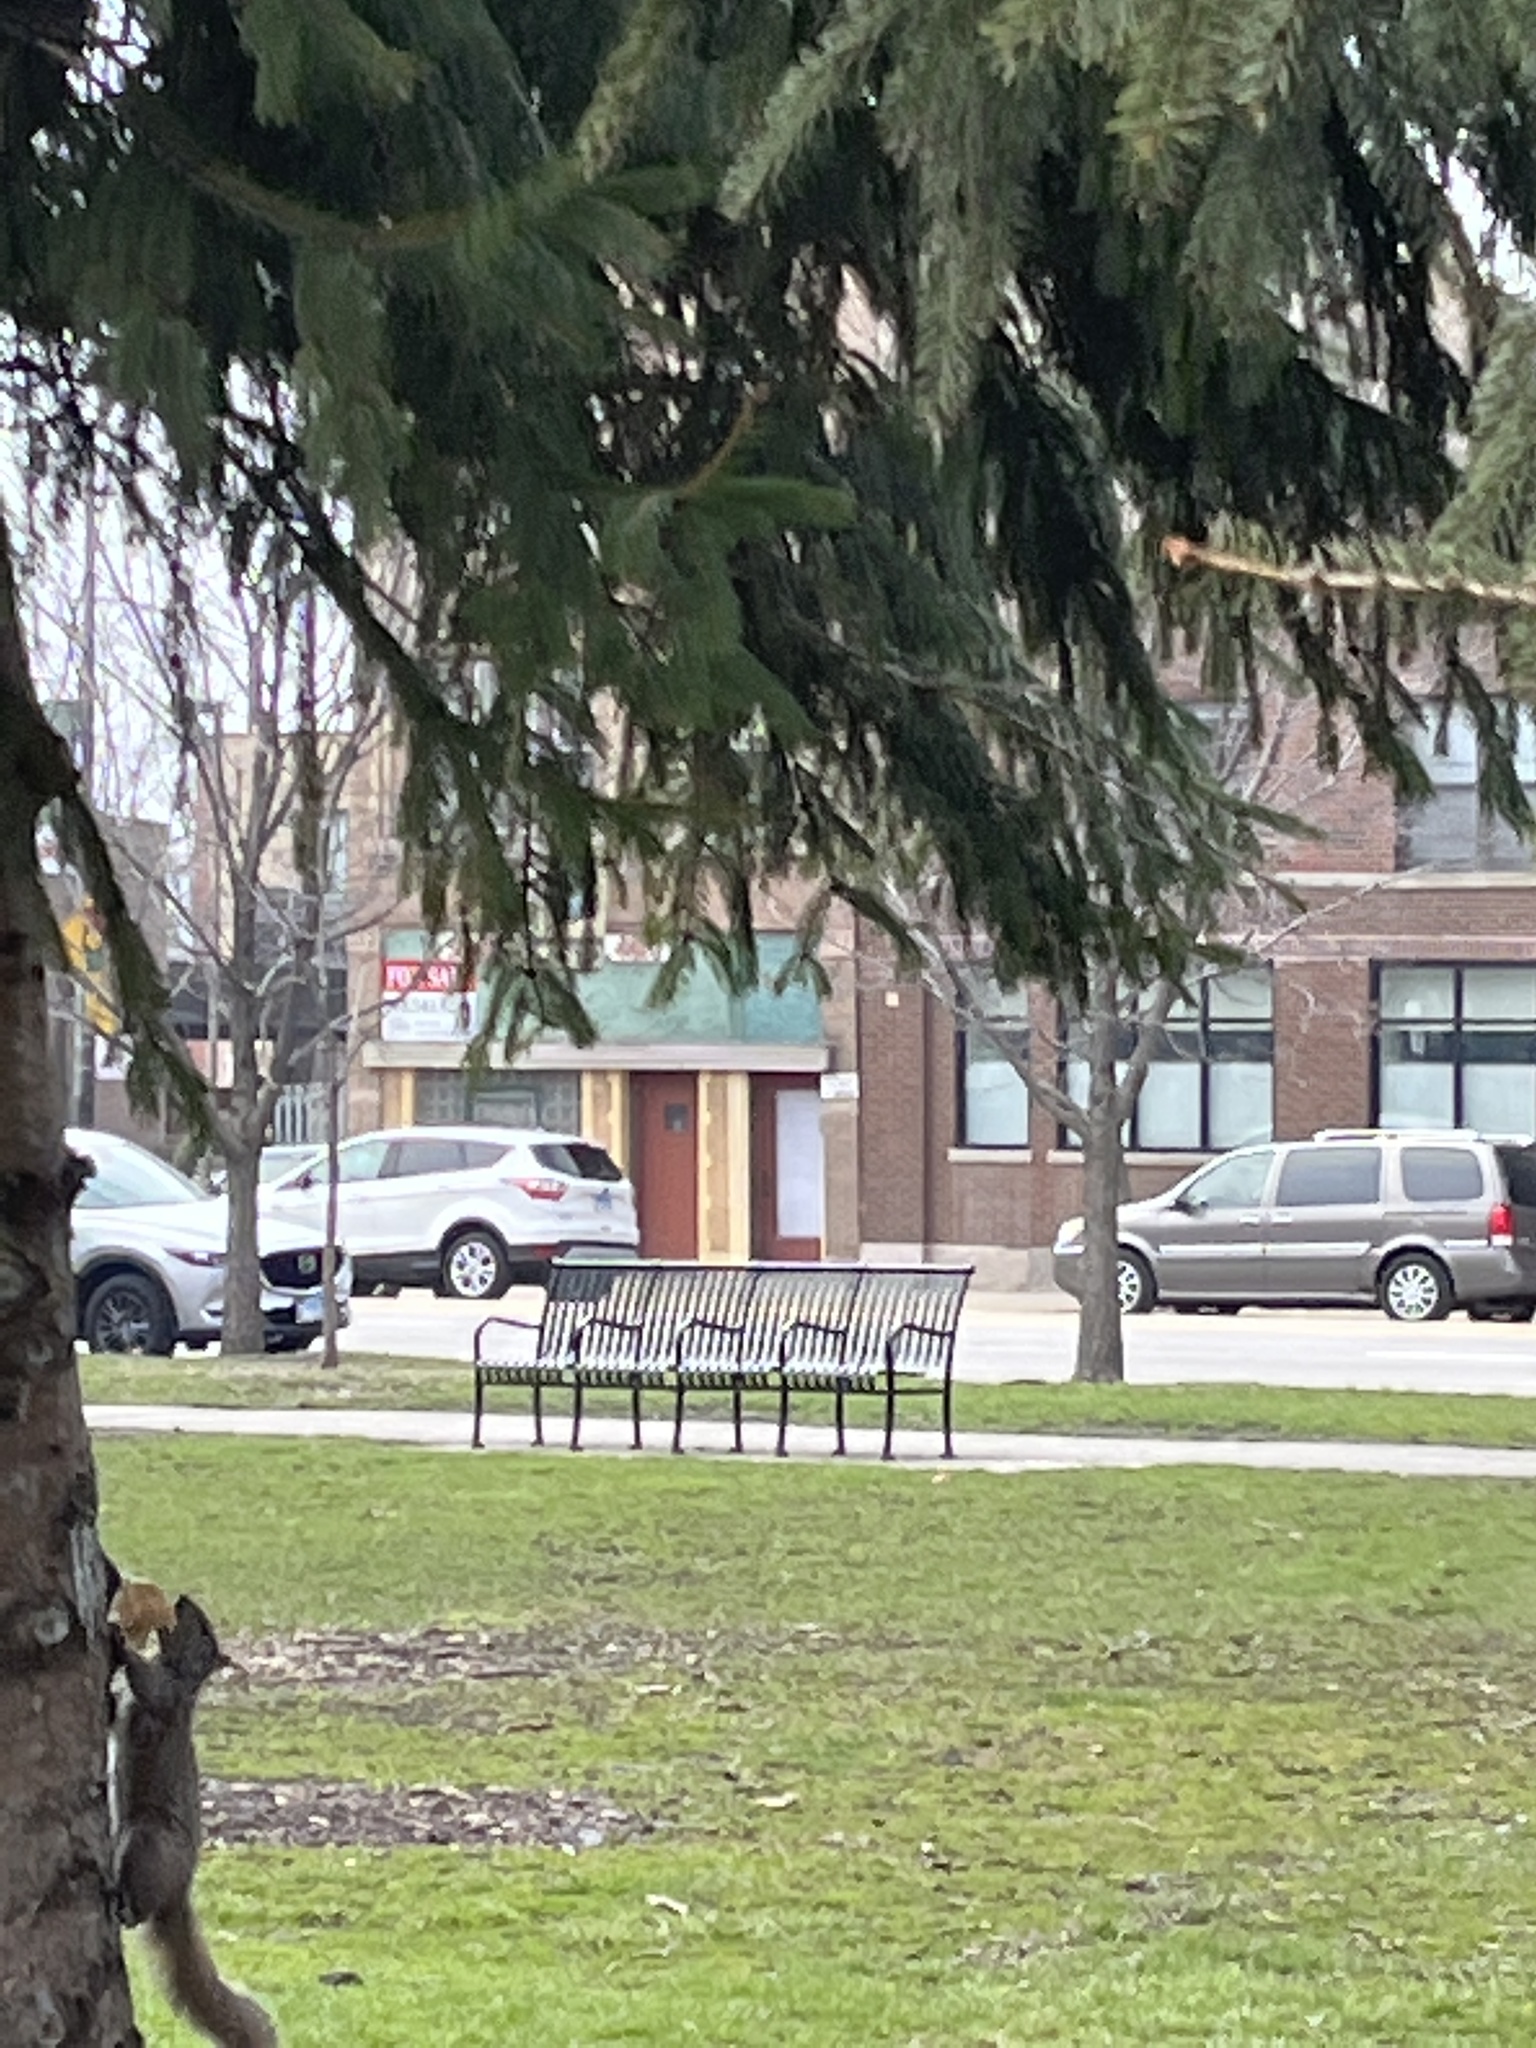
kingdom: Animalia
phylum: Chordata
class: Mammalia
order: Rodentia
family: Sciuridae
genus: Sciurus
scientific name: Sciurus carolinensis
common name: Eastern gray squirrel
